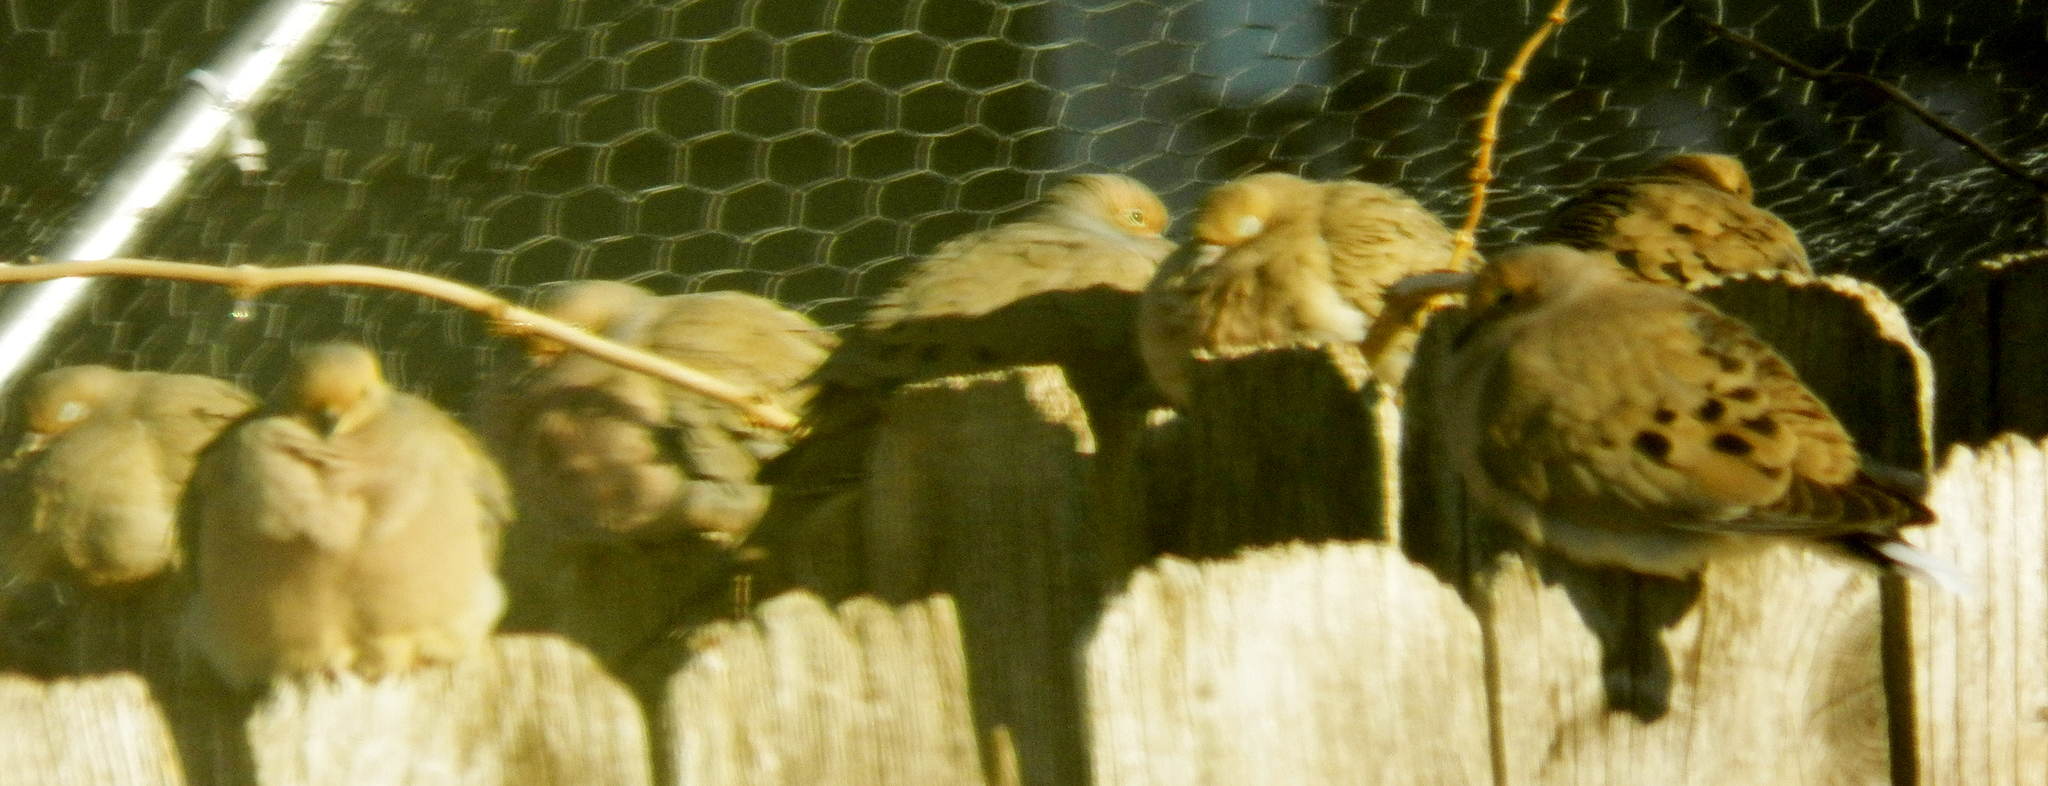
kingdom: Animalia
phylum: Chordata
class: Aves
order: Columbiformes
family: Columbidae
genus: Zenaida
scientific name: Zenaida macroura
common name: Mourning dove
